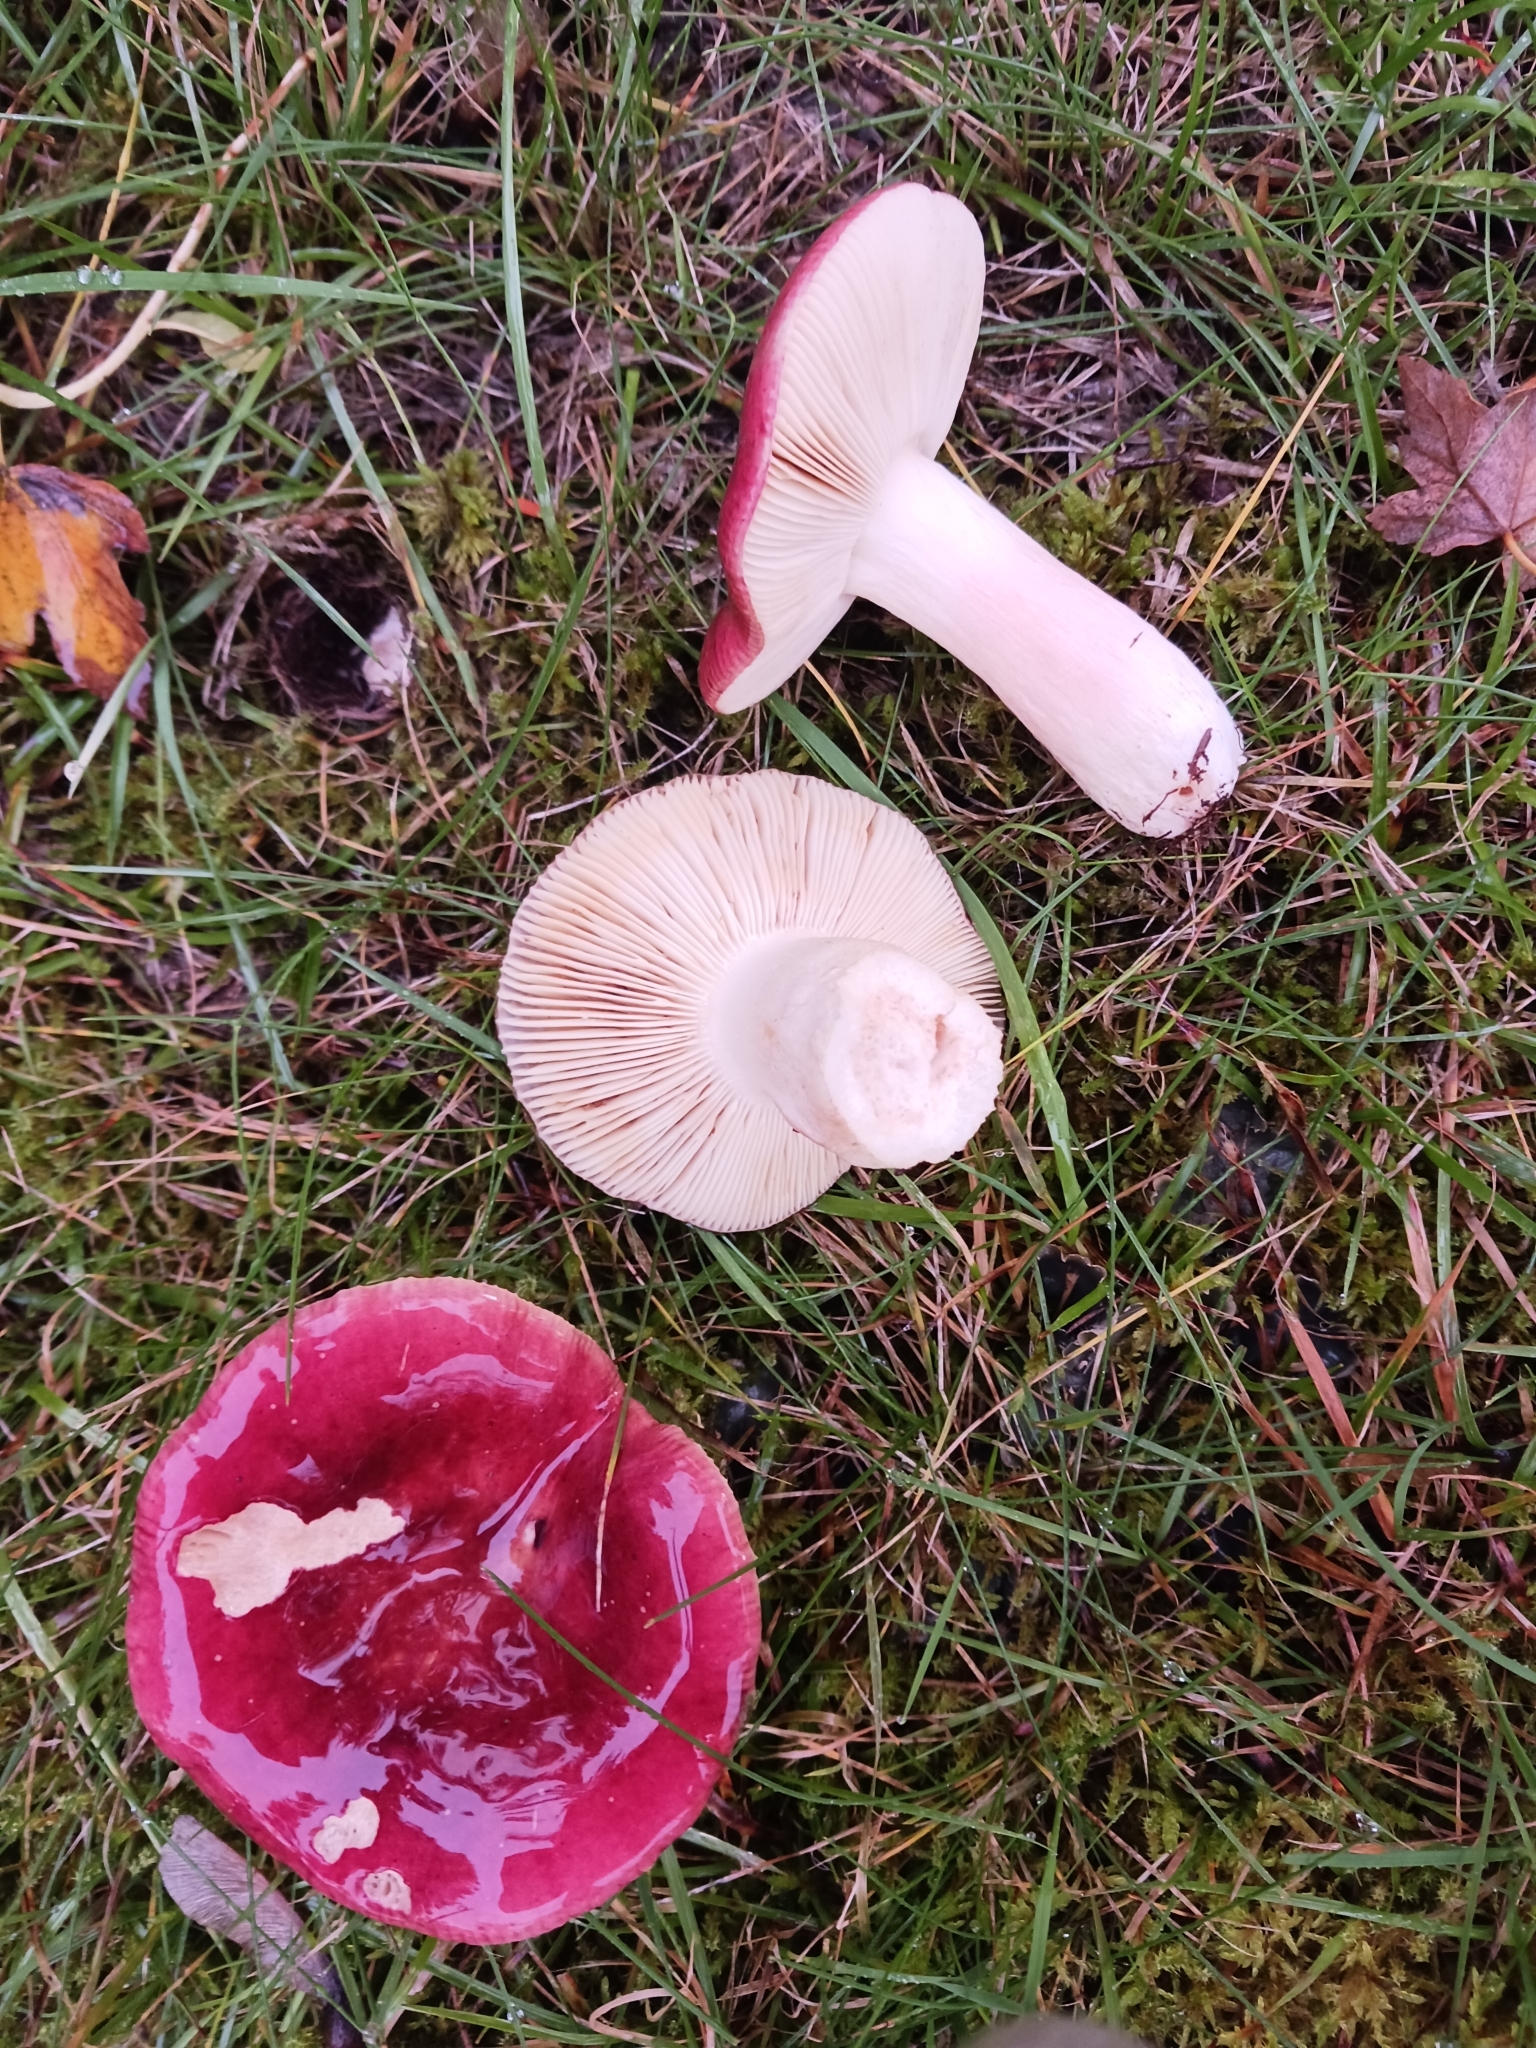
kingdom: Fungi
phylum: Basidiomycota
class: Agaricomycetes
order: Russulales
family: Russulaceae
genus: Russula
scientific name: Russula sanguinea
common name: Bloody brittlegill
